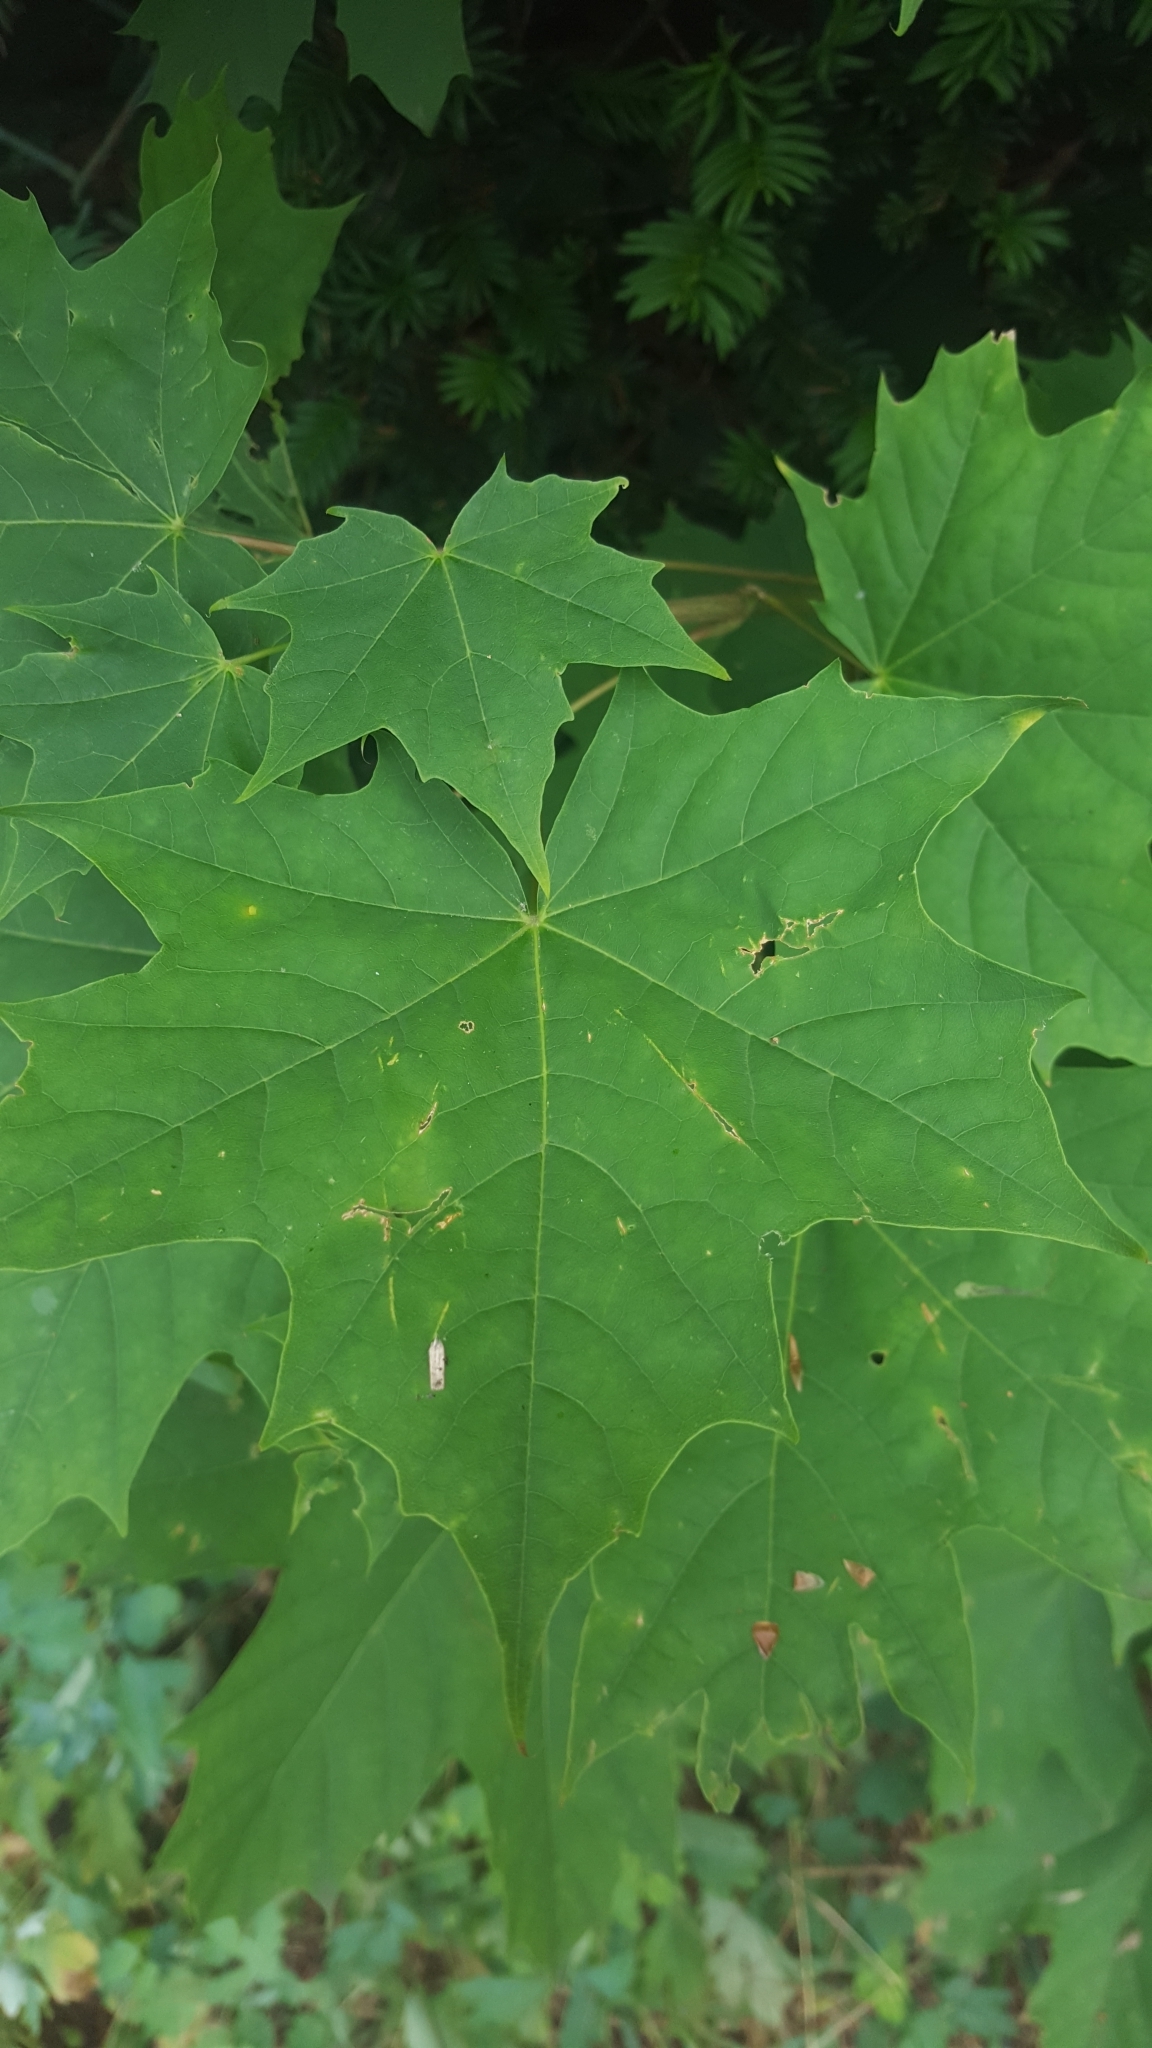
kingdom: Plantae
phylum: Tracheophyta
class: Magnoliopsida
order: Sapindales
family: Sapindaceae
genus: Acer
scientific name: Acer platanoides
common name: Norway maple
